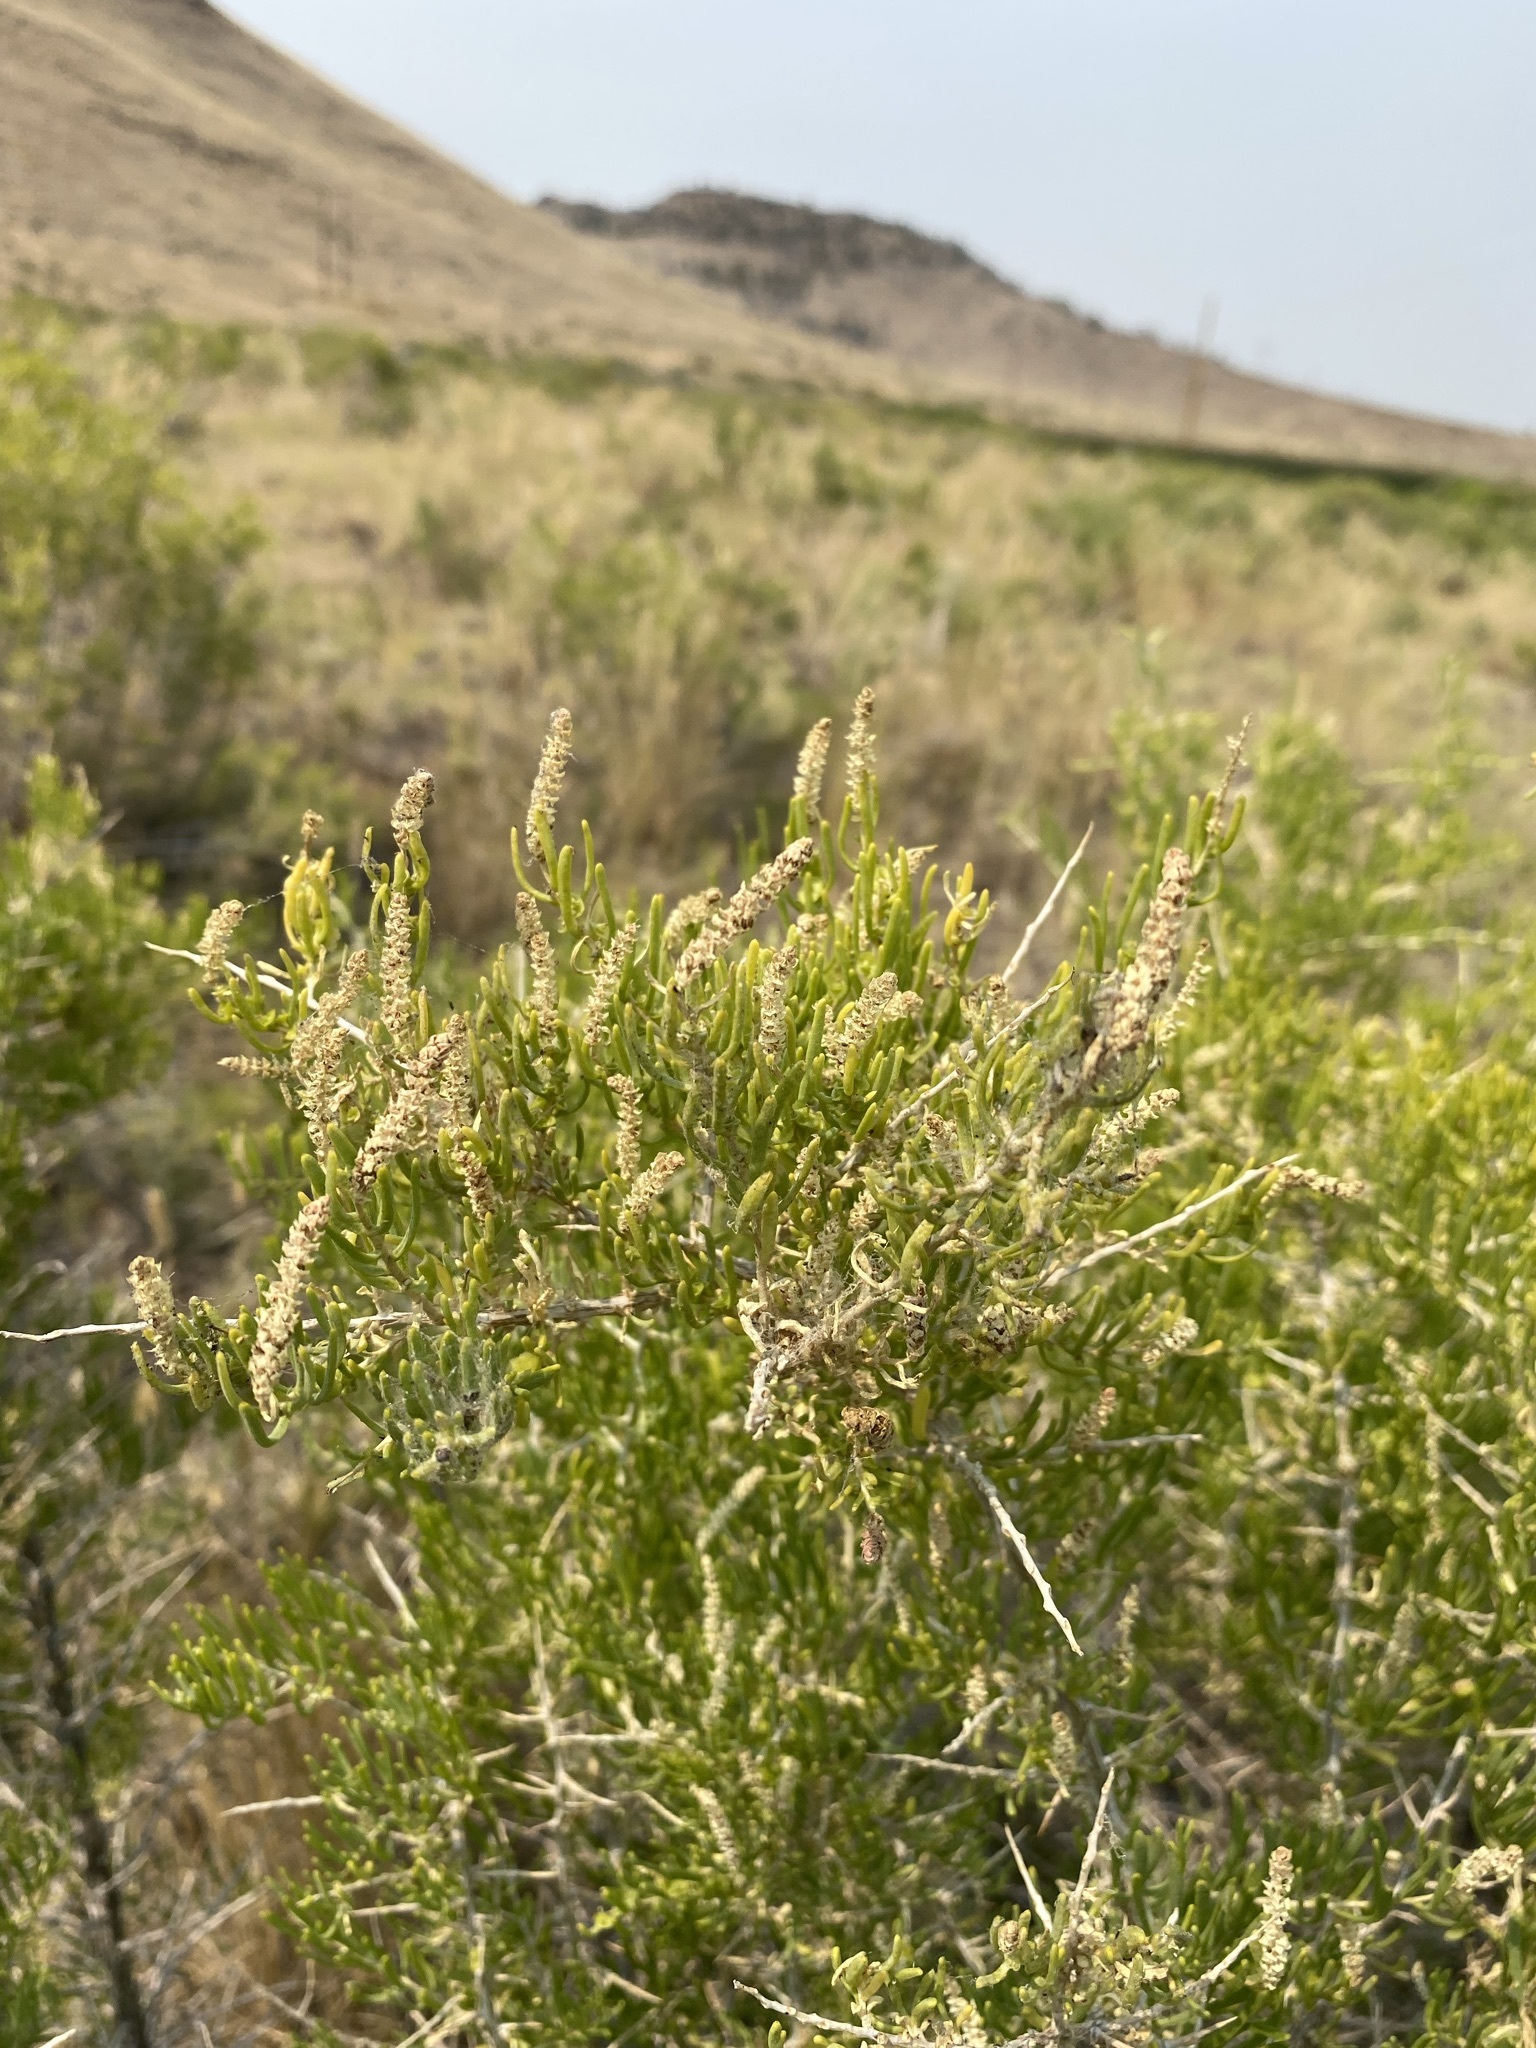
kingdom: Plantae
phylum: Tracheophyta
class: Magnoliopsida
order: Caryophyllales
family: Sarcobataceae
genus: Sarcobatus
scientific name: Sarcobatus vermiculatus
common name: Greasewood
